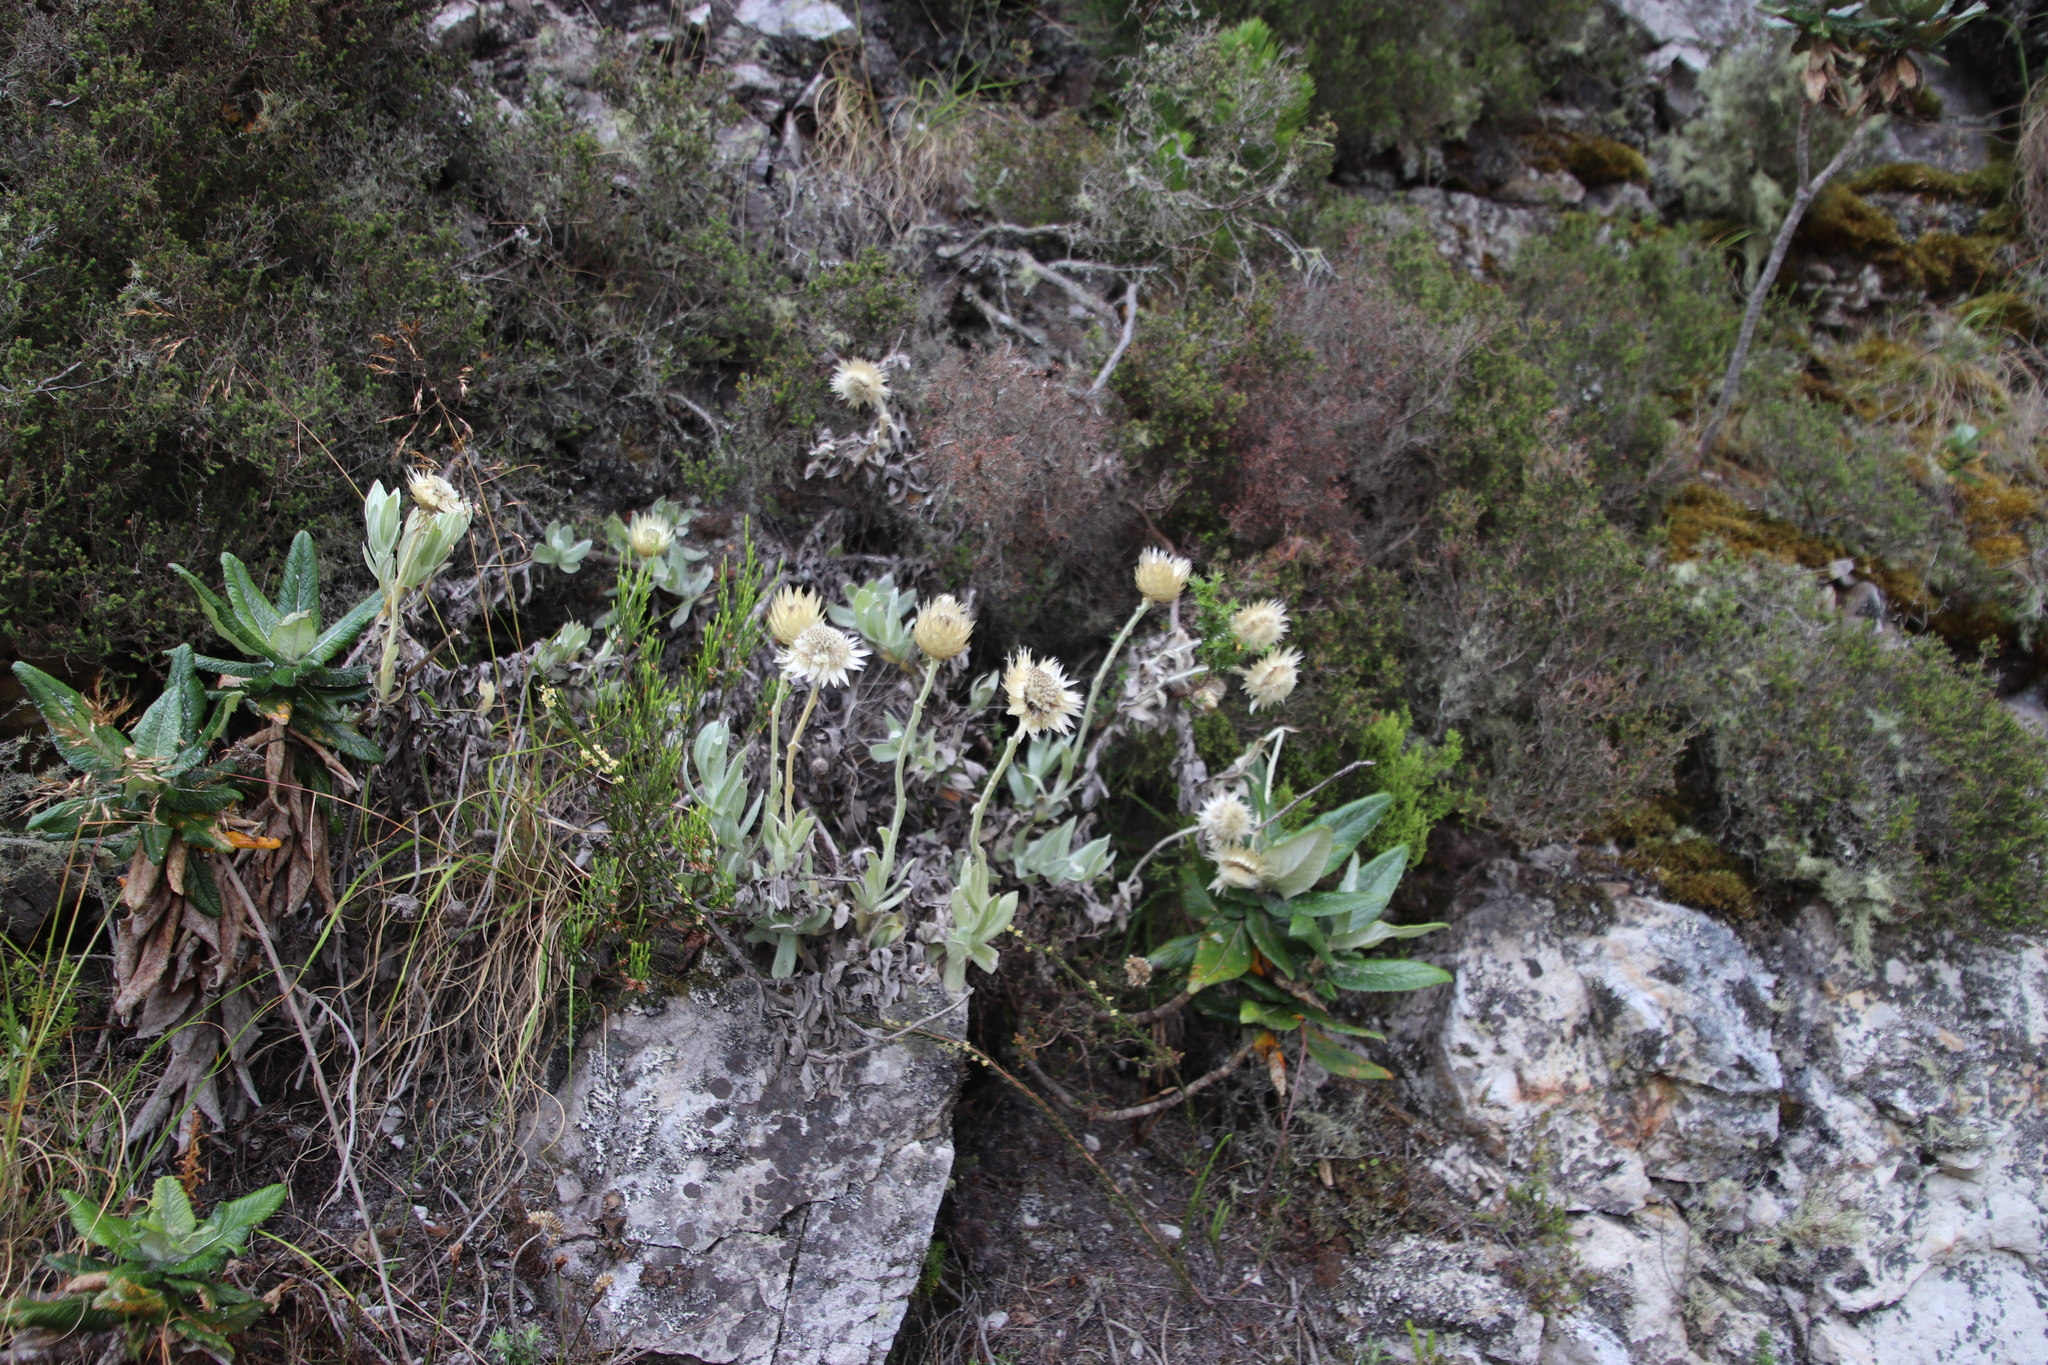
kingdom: Plantae
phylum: Tracheophyta
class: Magnoliopsida
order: Asterales
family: Asteraceae
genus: Syncarpha
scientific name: Syncarpha speciosissima
